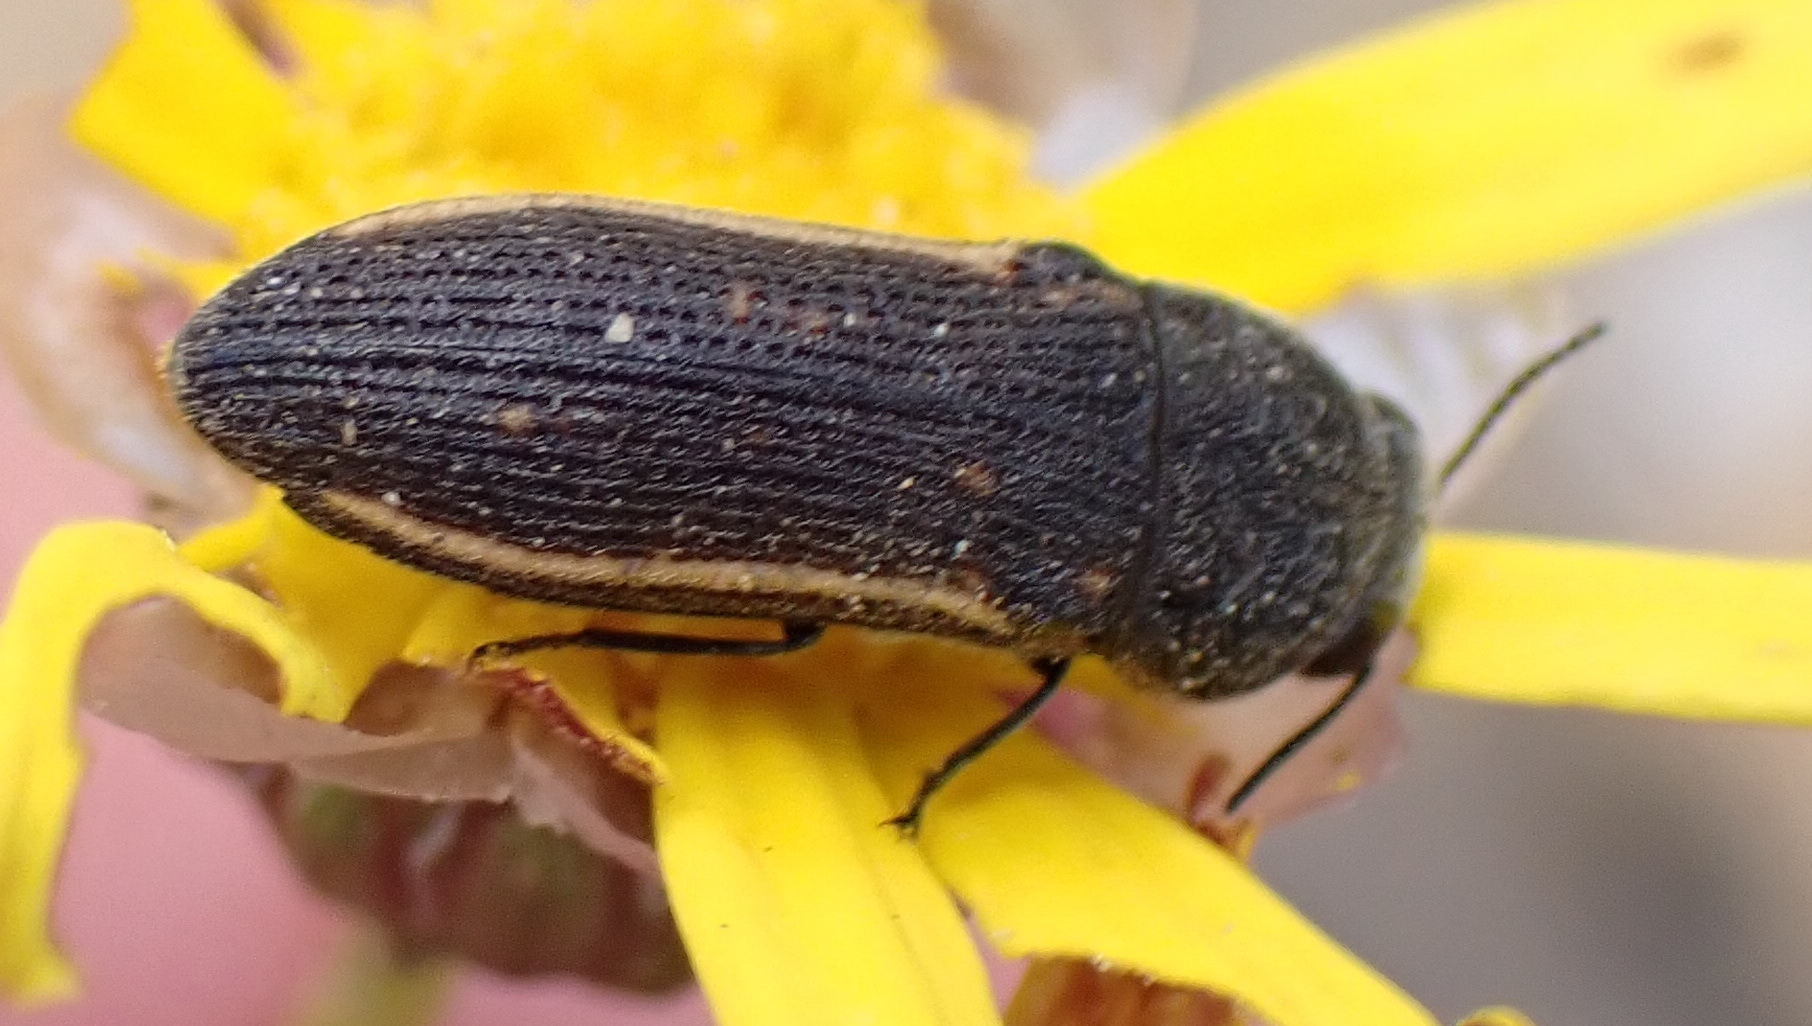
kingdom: Animalia
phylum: Arthropoda
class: Insecta
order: Coleoptera
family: Buprestidae
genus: Acmaeodera
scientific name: Acmaeodera gracilis
